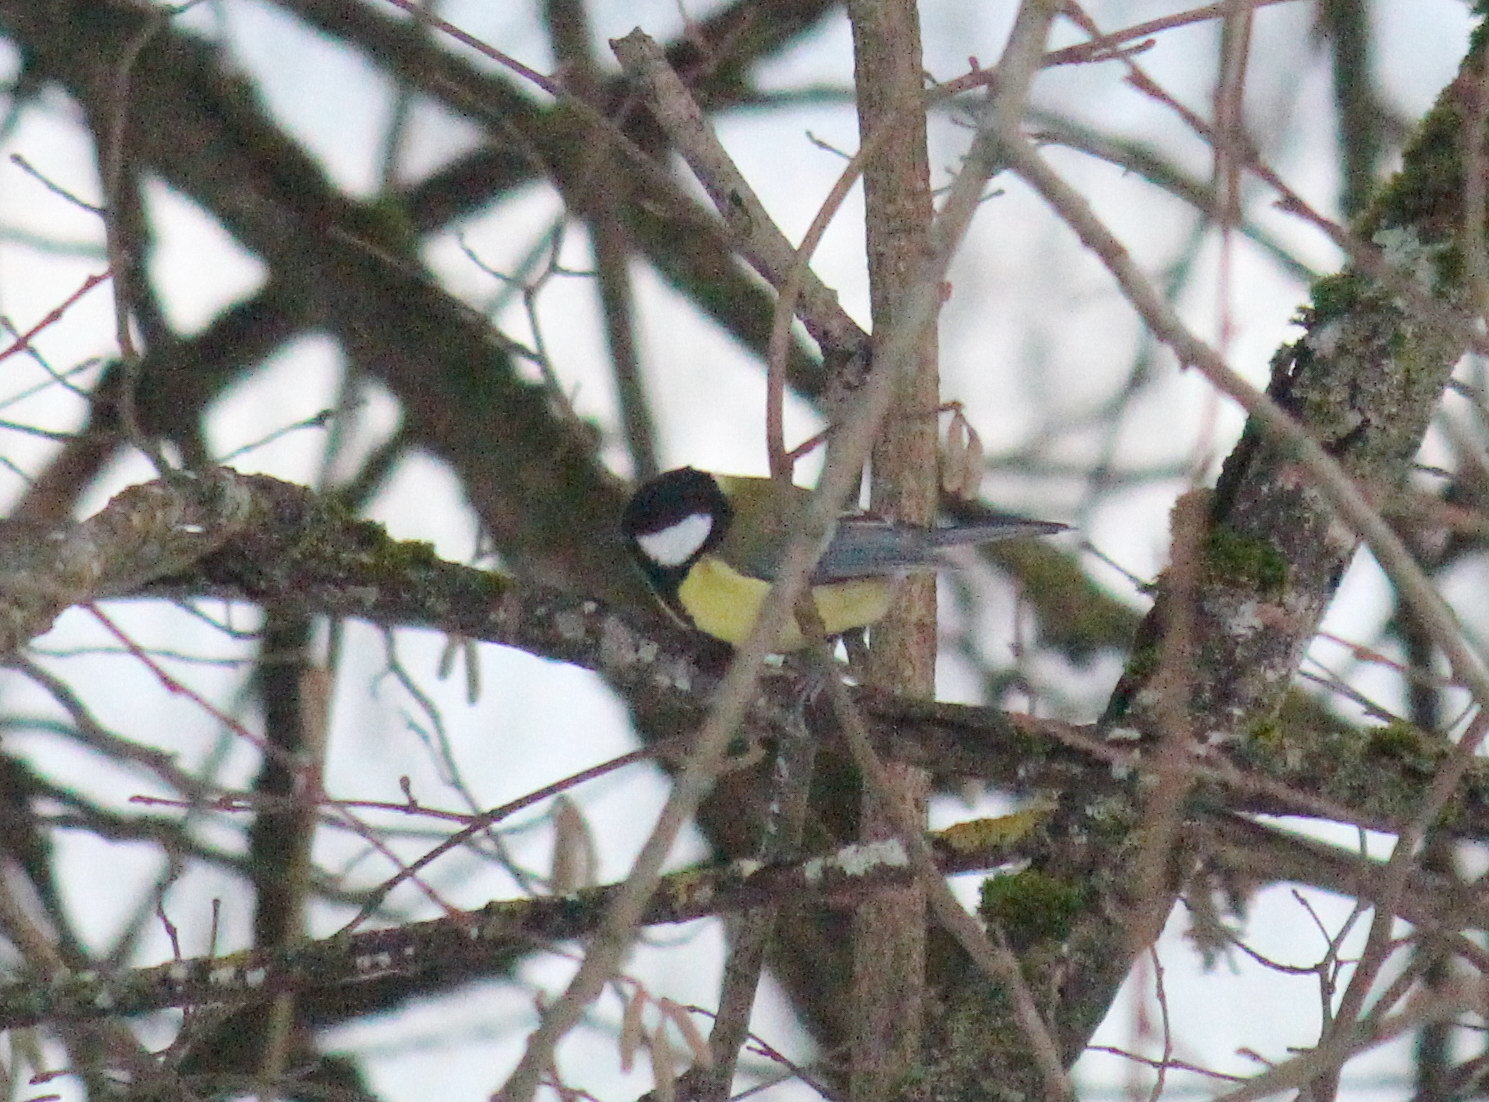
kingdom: Animalia
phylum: Chordata
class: Aves
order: Passeriformes
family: Paridae
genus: Parus
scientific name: Parus major
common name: Great tit
